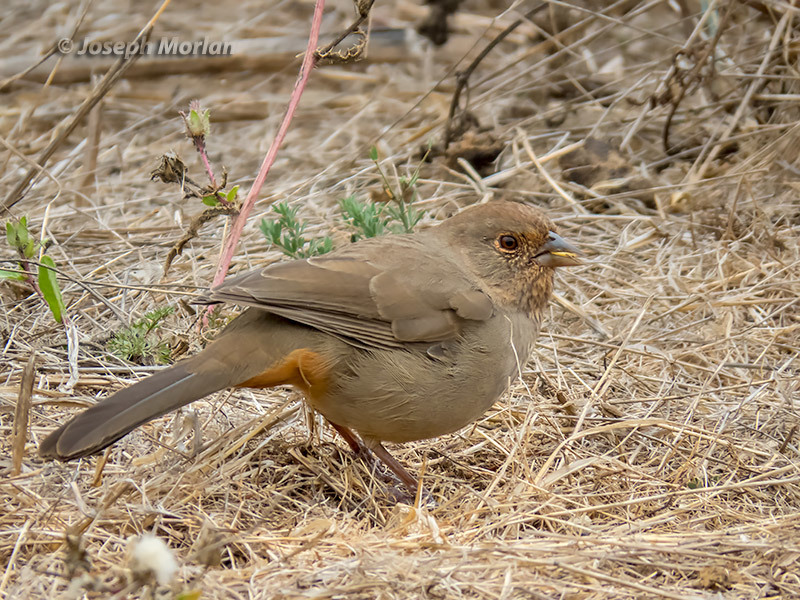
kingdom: Animalia
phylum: Chordata
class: Aves
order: Passeriformes
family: Passerellidae
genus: Melozone
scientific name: Melozone crissalis
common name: California towhee
